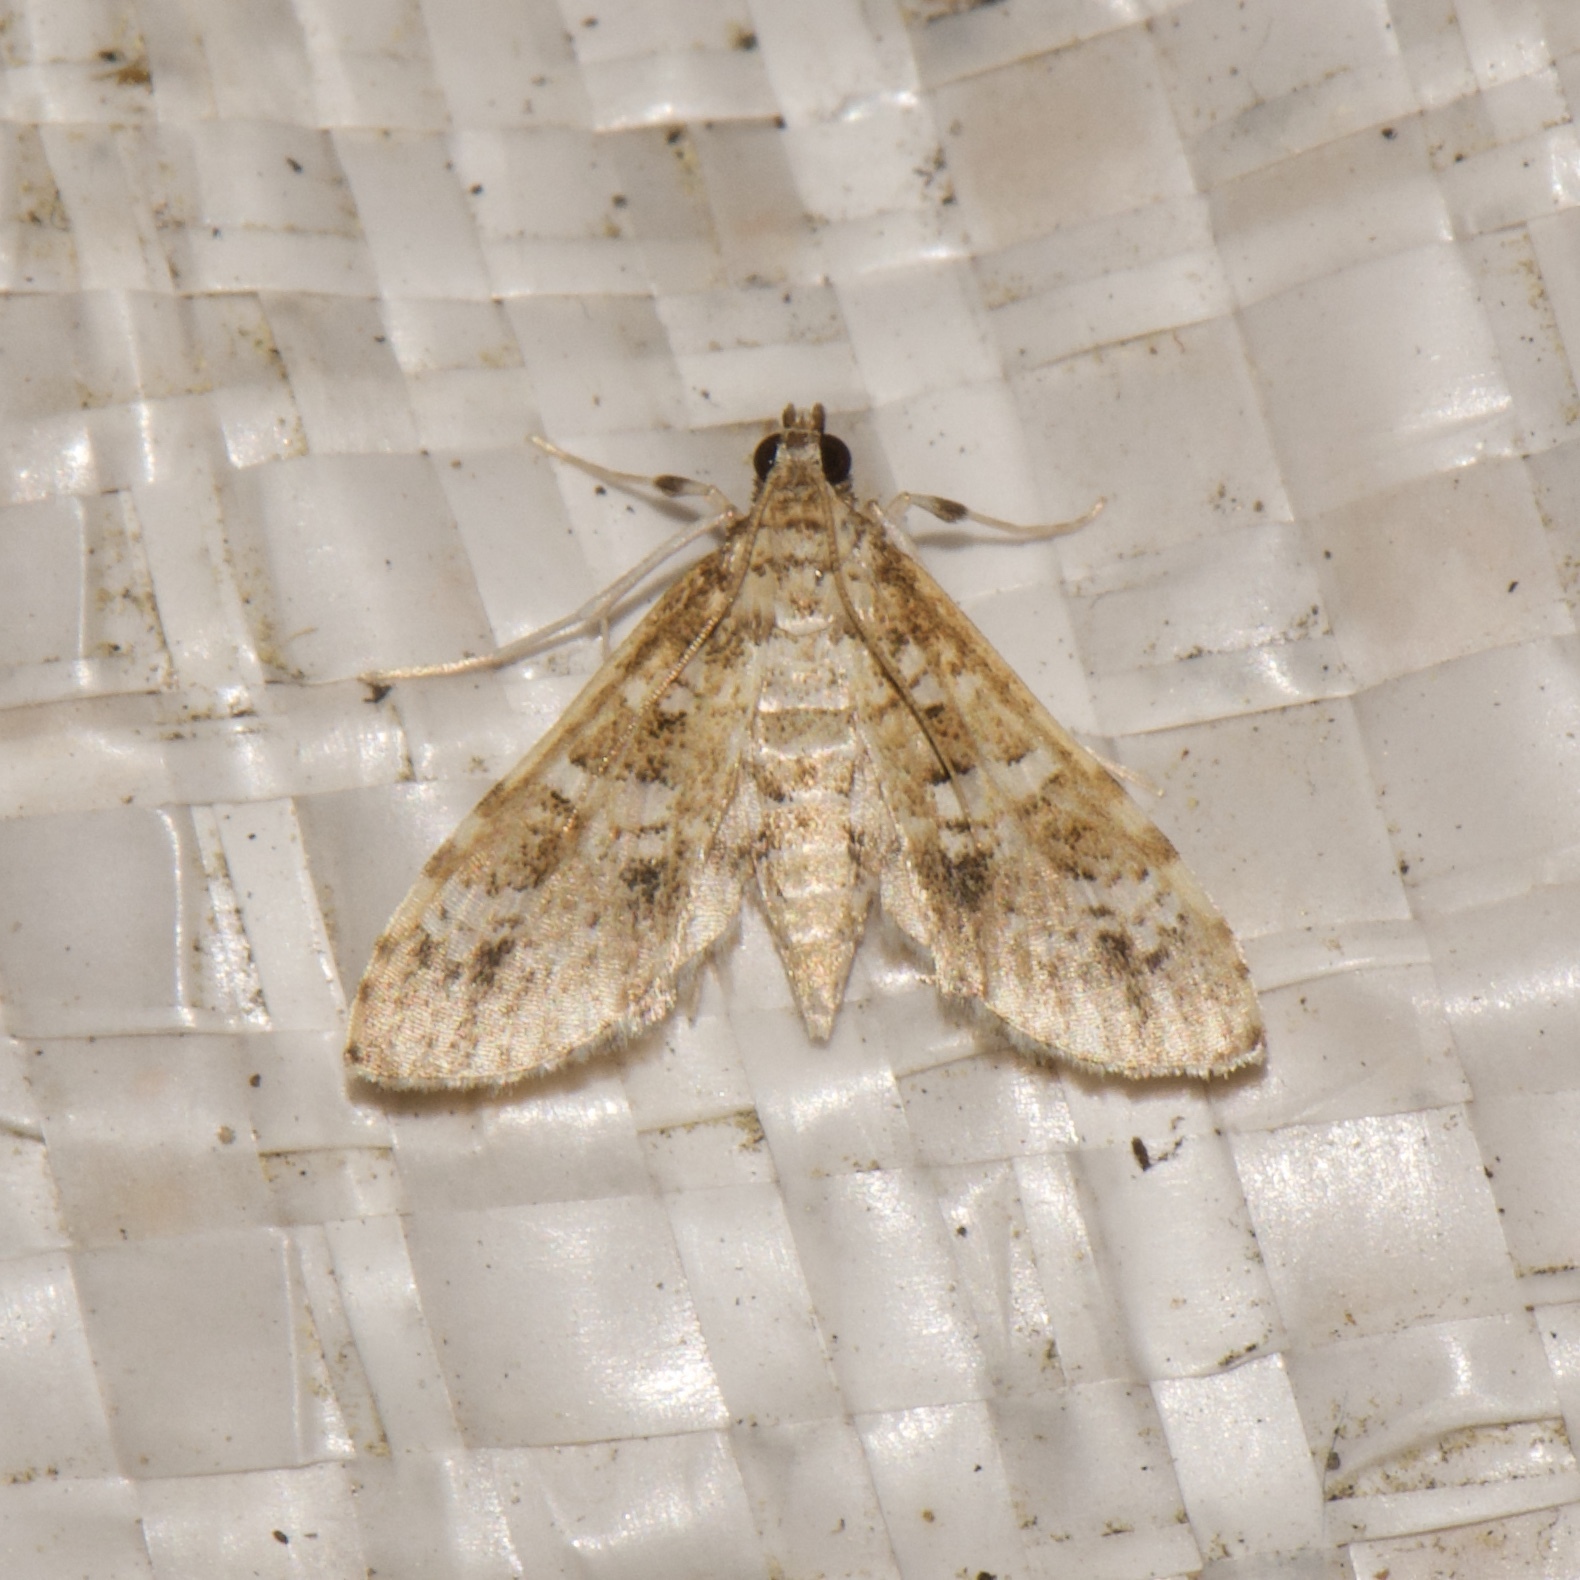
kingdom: Animalia
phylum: Arthropoda
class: Insecta
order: Lepidoptera
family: Crambidae
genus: Samea
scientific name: Samea multiplicalis
